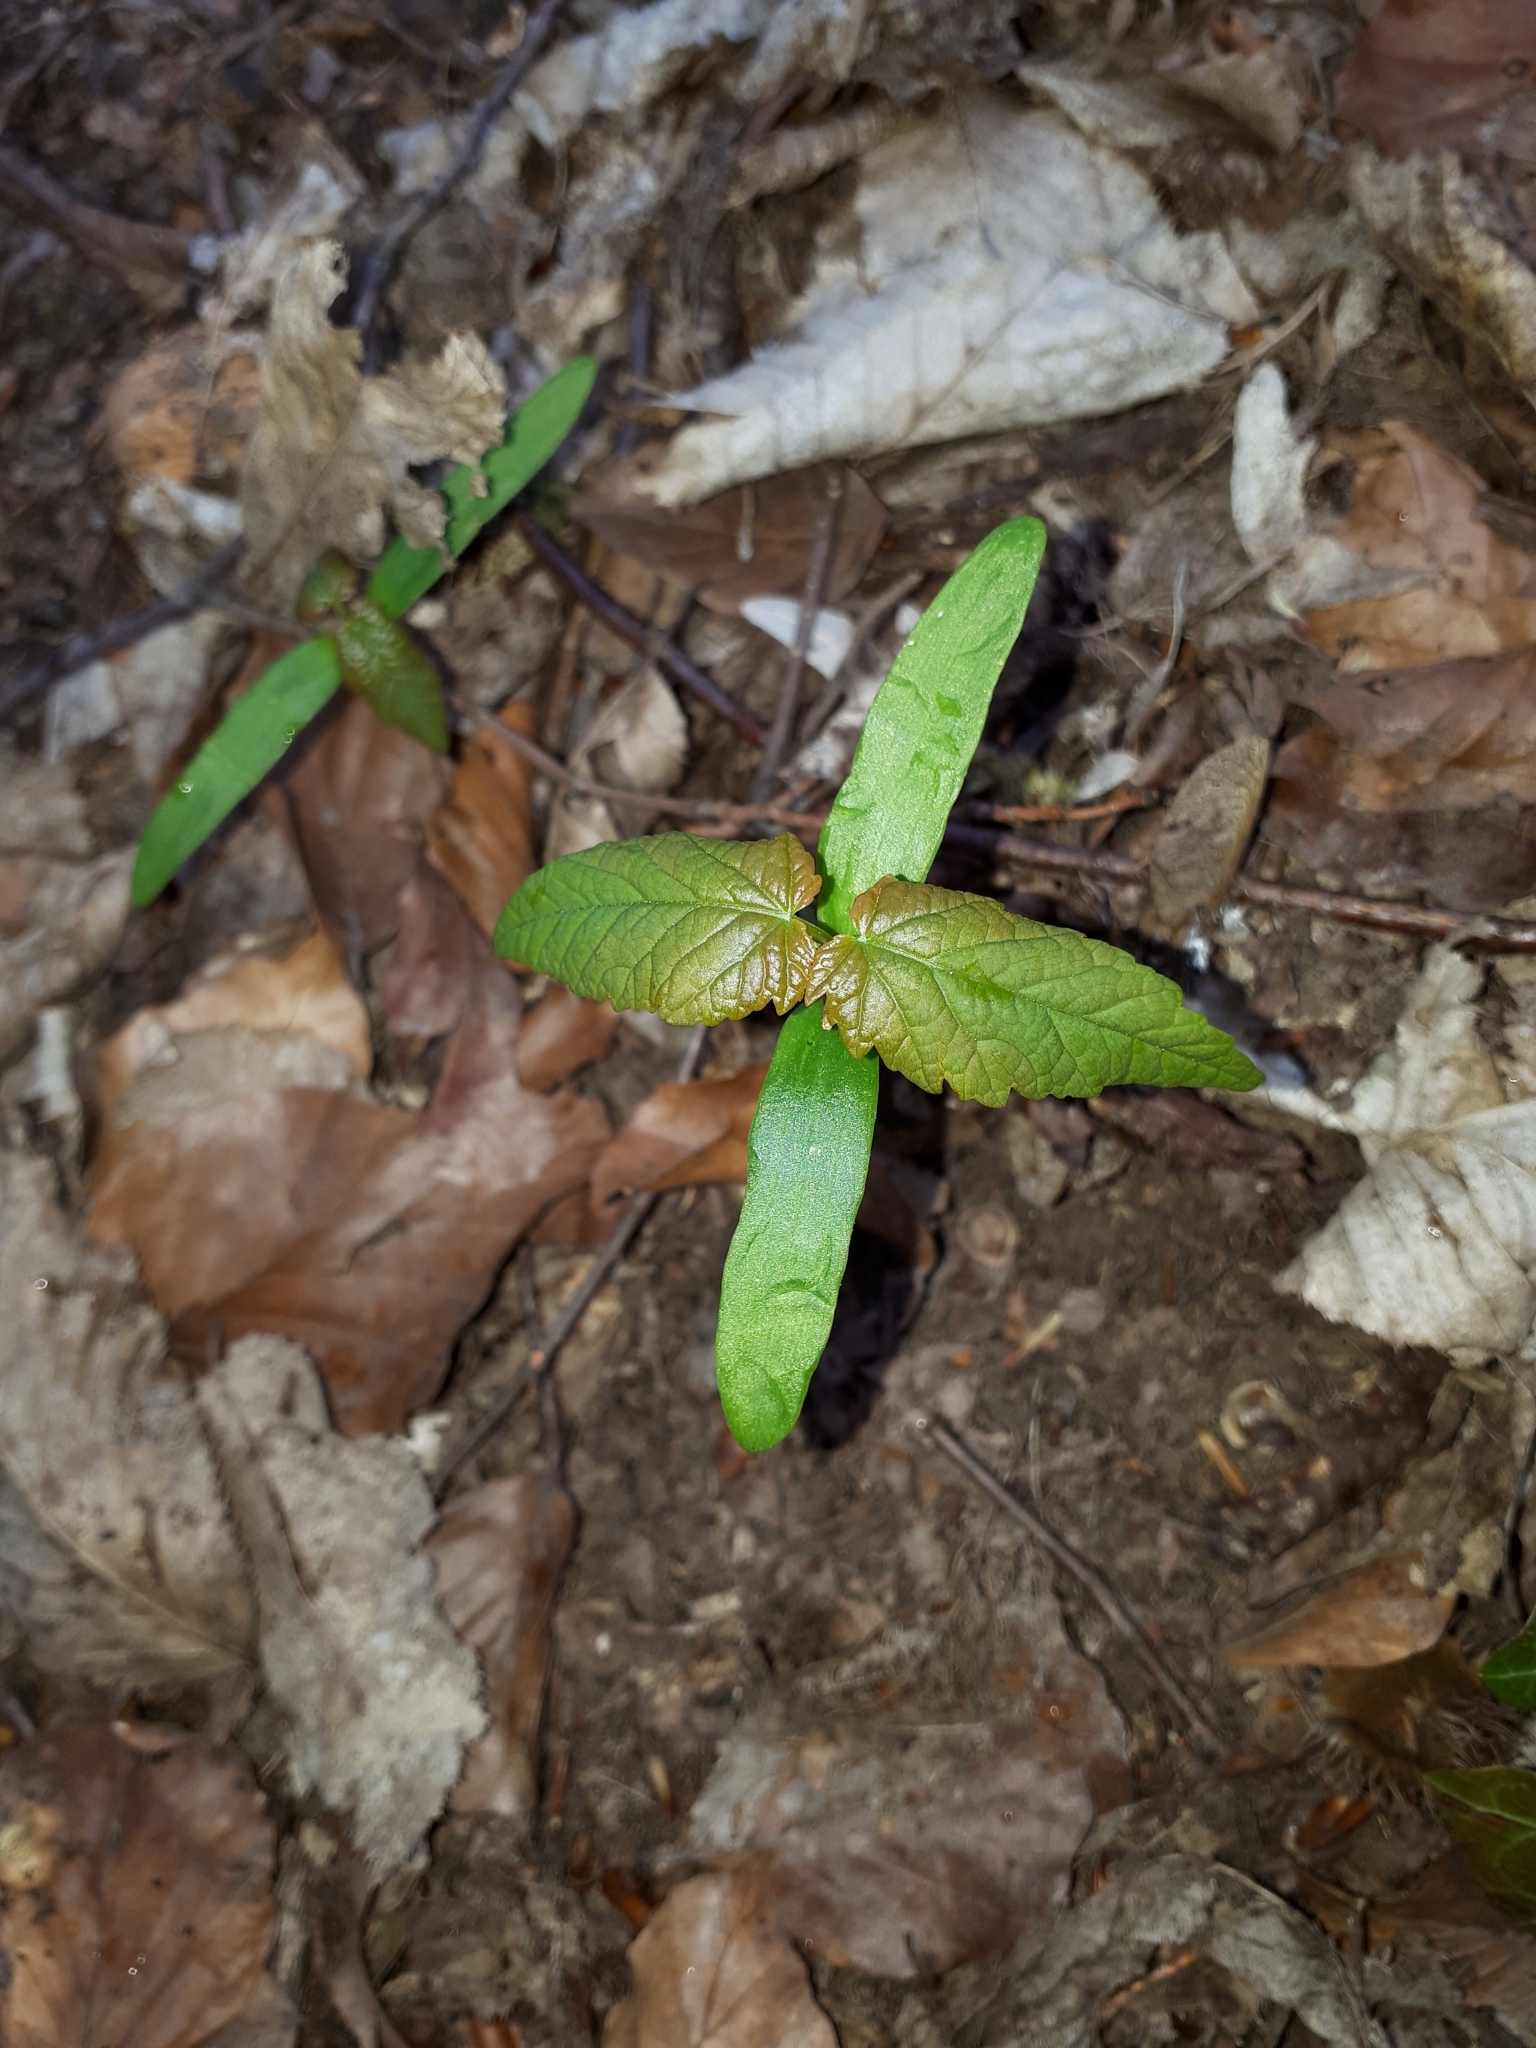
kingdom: Plantae
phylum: Tracheophyta
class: Magnoliopsida
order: Sapindales
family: Sapindaceae
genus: Acer
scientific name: Acer pseudoplatanus
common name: Sycamore
